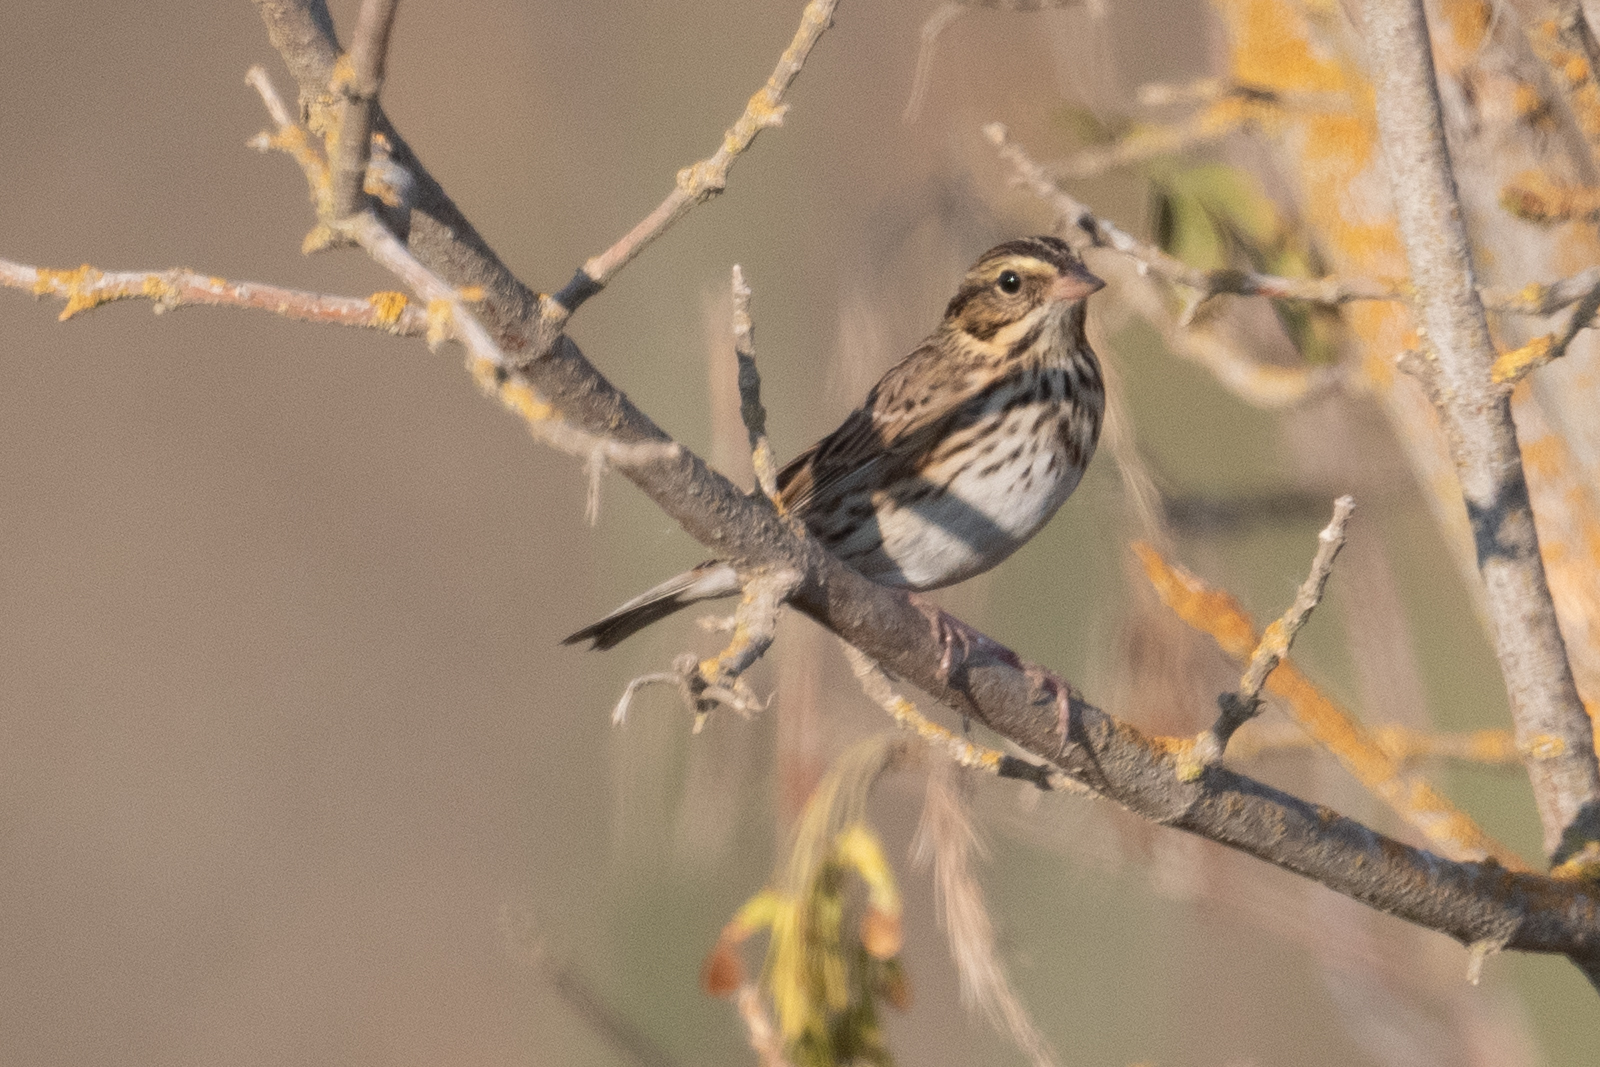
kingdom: Animalia
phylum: Chordata
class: Aves
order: Passeriformes
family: Passerellidae
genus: Passerculus
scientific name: Passerculus sandwichensis
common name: Savannah sparrow
